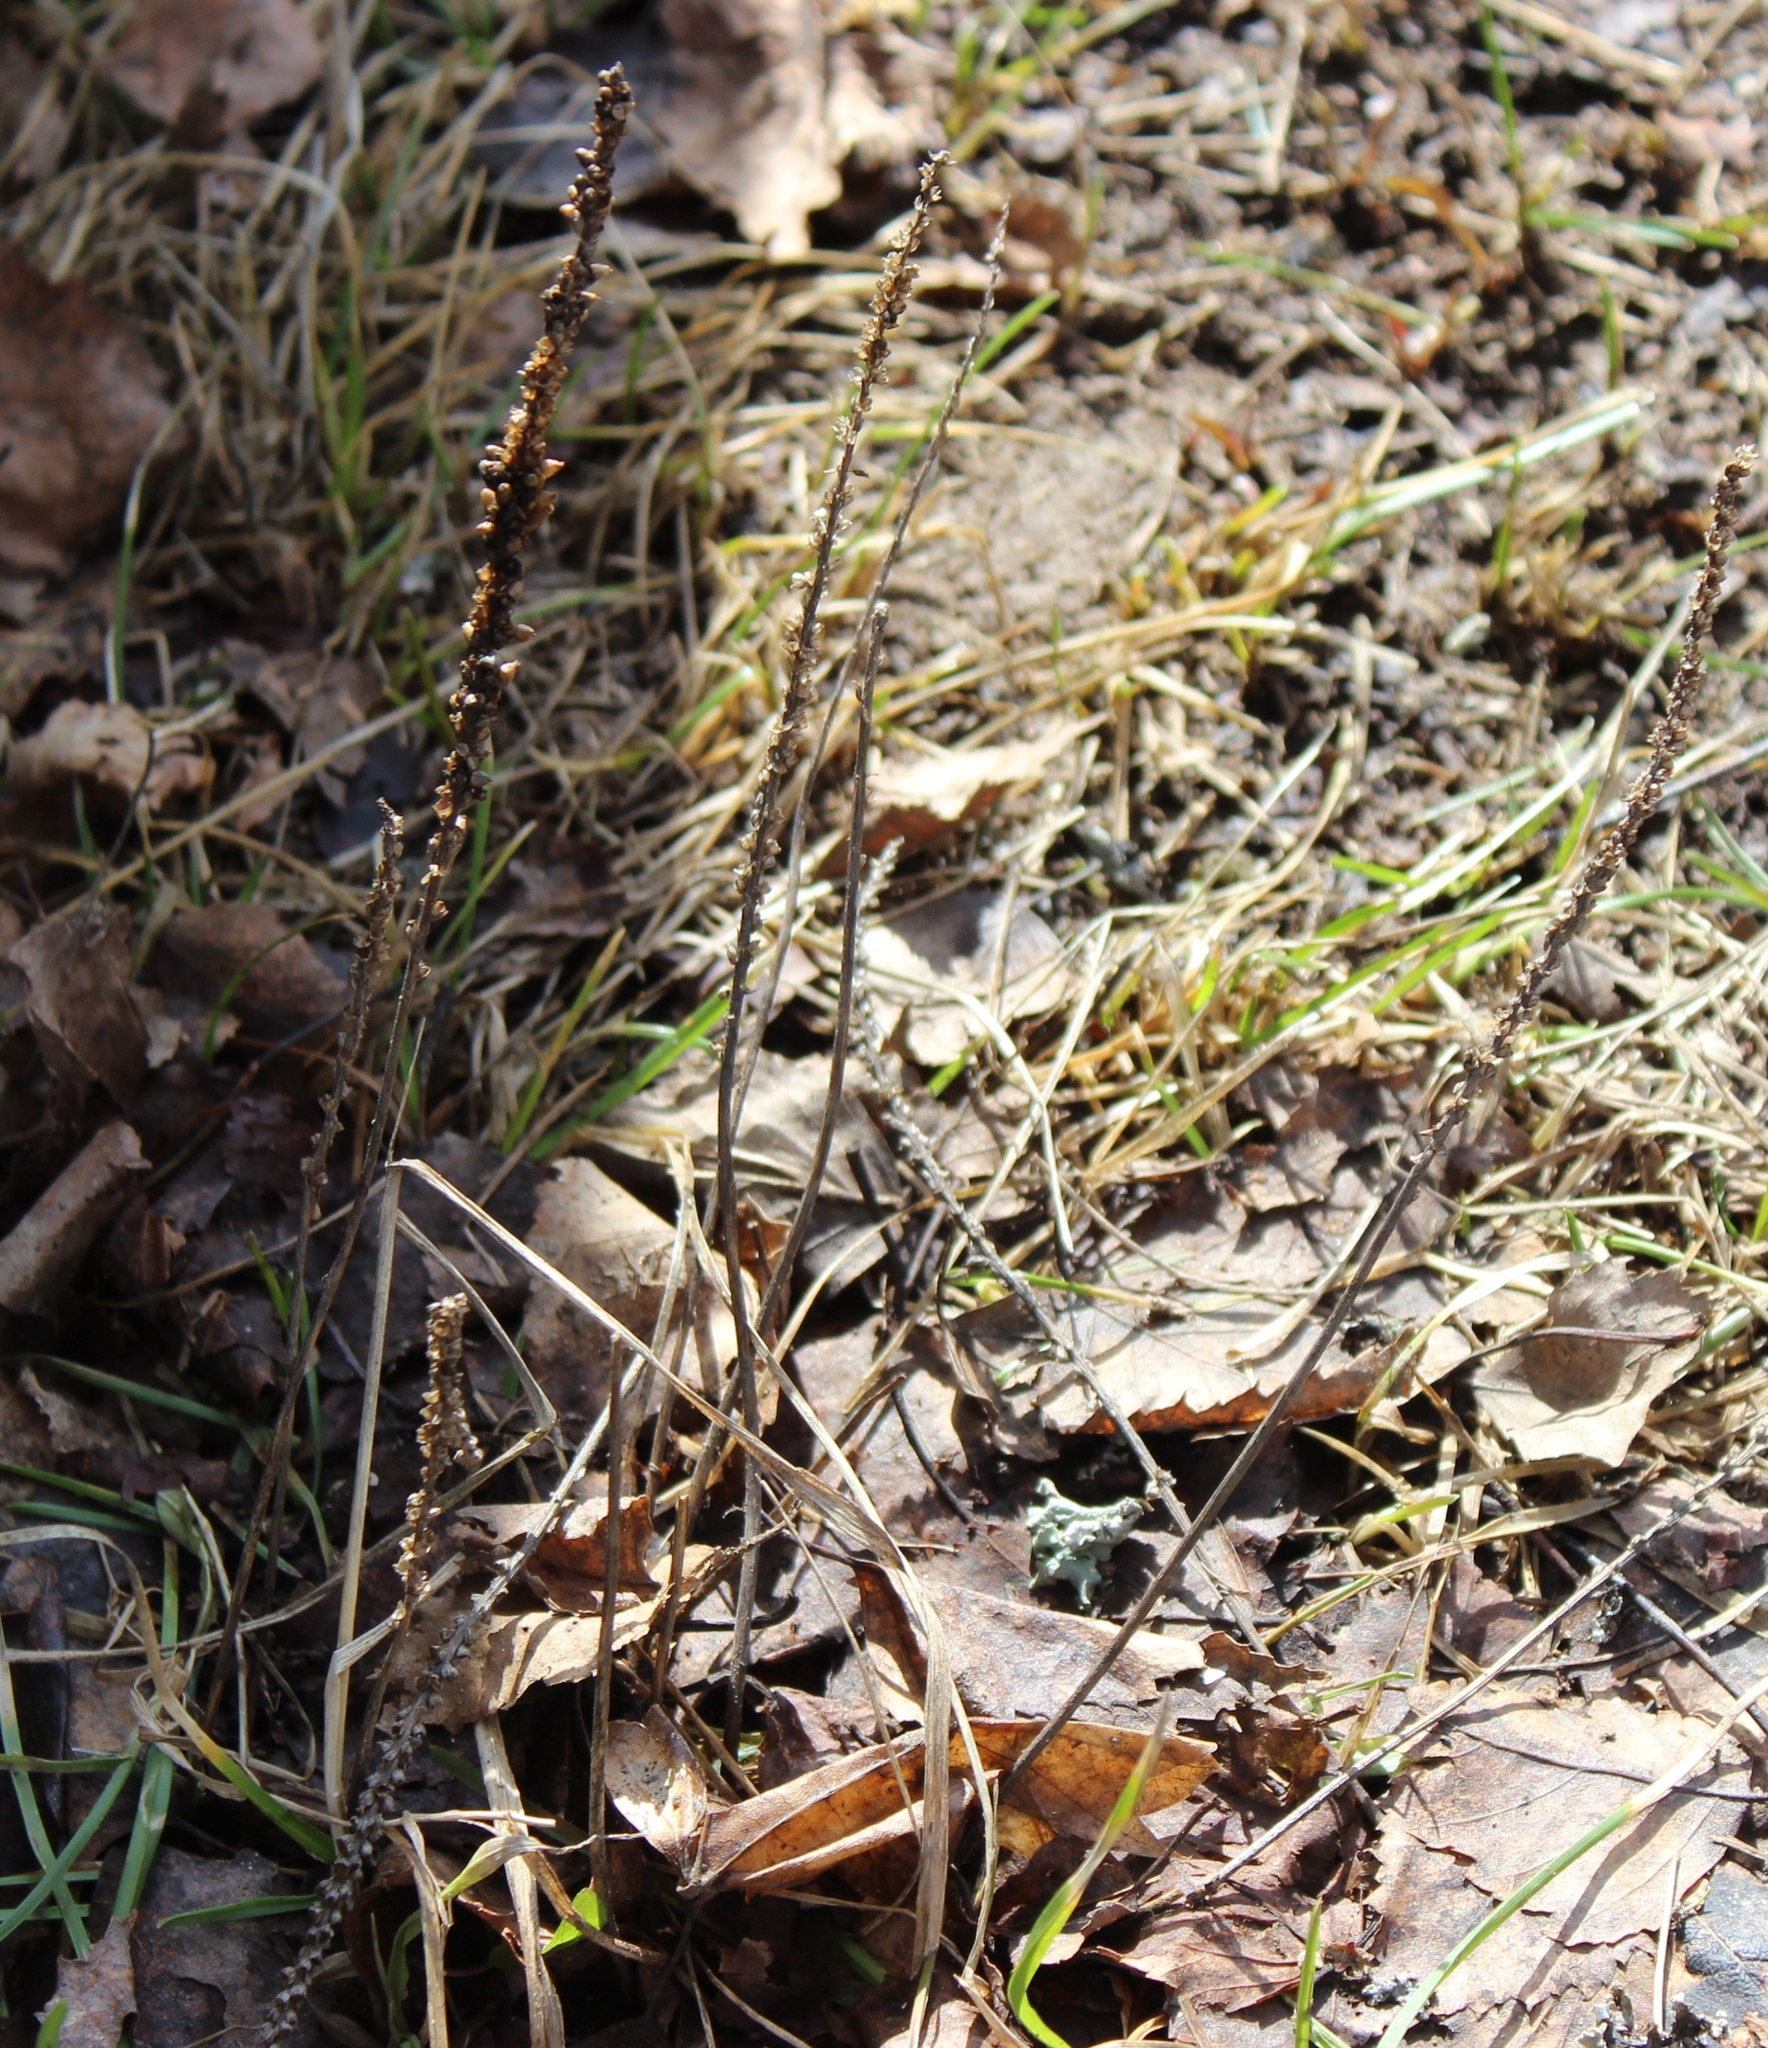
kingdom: Plantae
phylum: Tracheophyta
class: Magnoliopsida
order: Lamiales
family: Plantaginaceae
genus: Plantago
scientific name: Plantago major
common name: Common plantain
